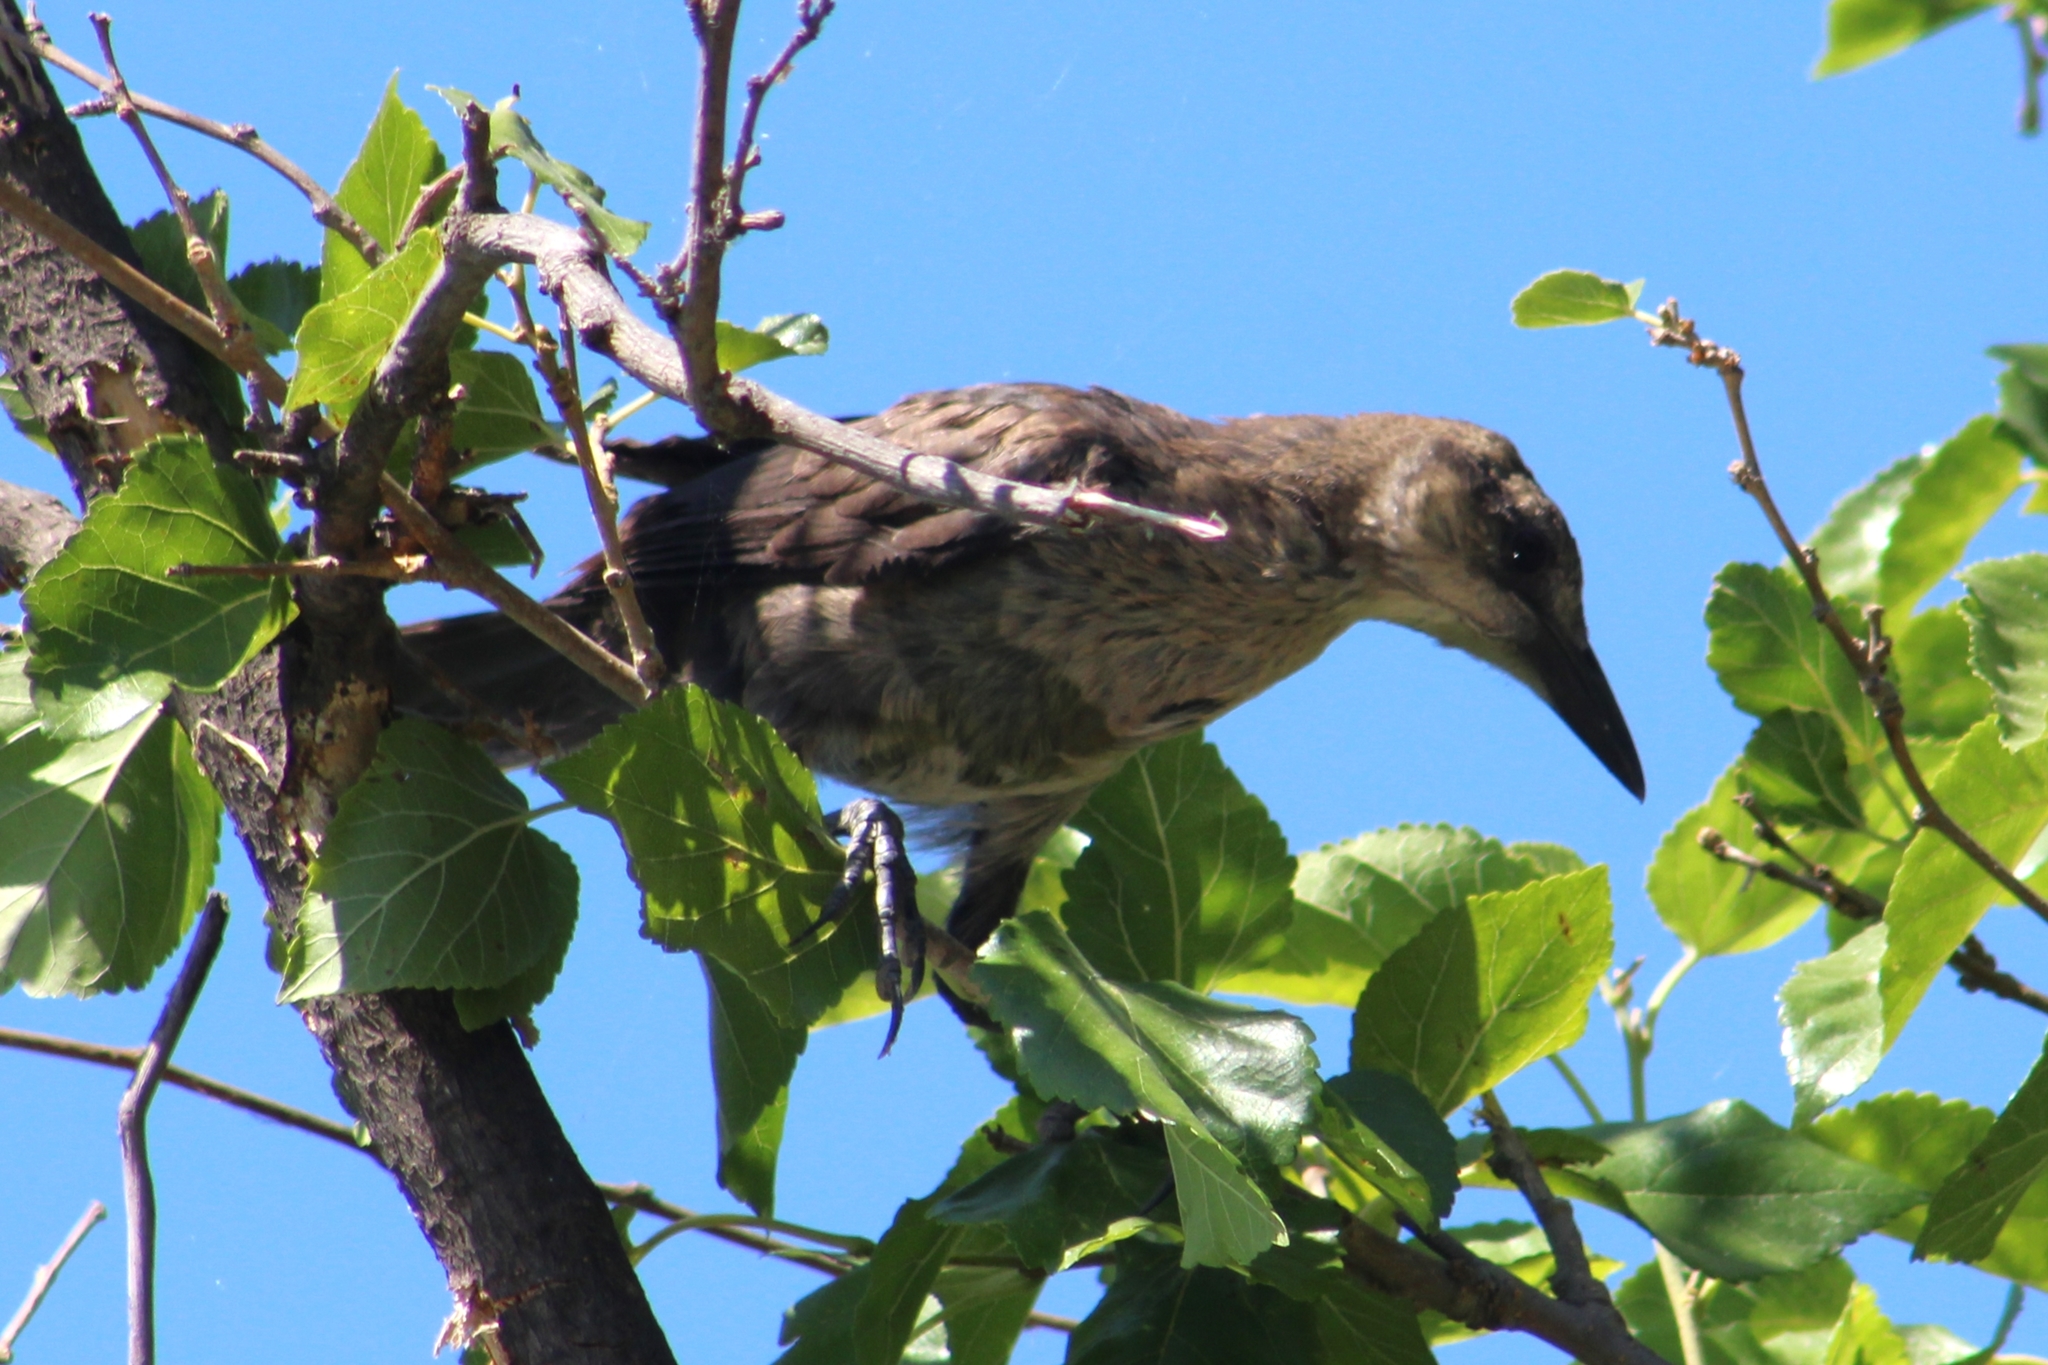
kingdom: Animalia
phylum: Chordata
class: Aves
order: Passeriformes
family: Icteridae
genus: Quiscalus
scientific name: Quiscalus mexicanus
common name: Great-tailed grackle
